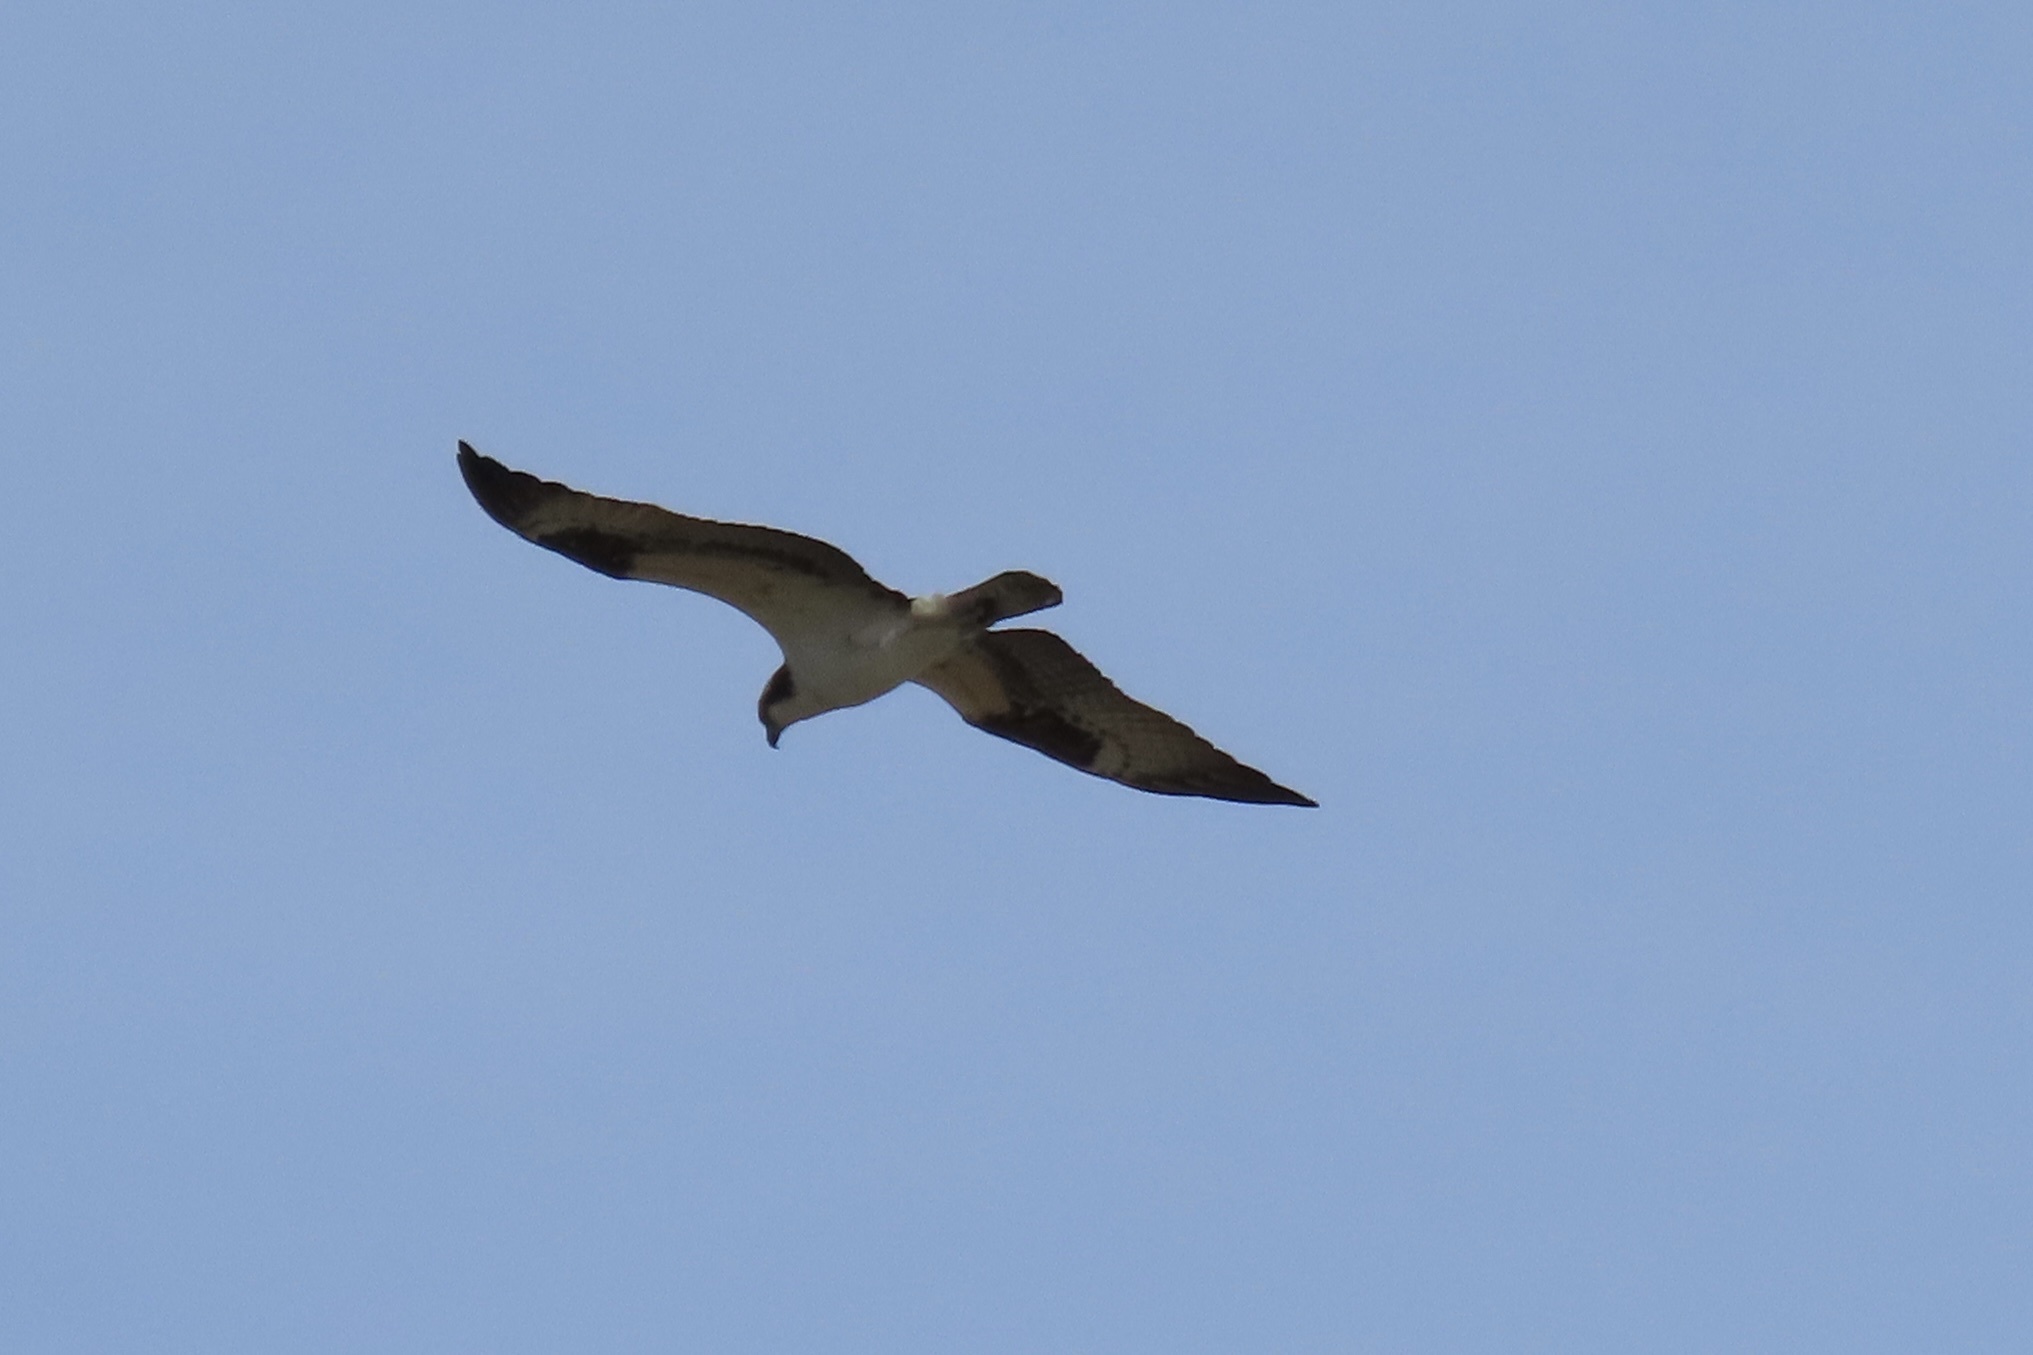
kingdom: Animalia
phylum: Chordata
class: Aves
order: Accipitriformes
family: Pandionidae
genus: Pandion
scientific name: Pandion haliaetus
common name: Osprey
